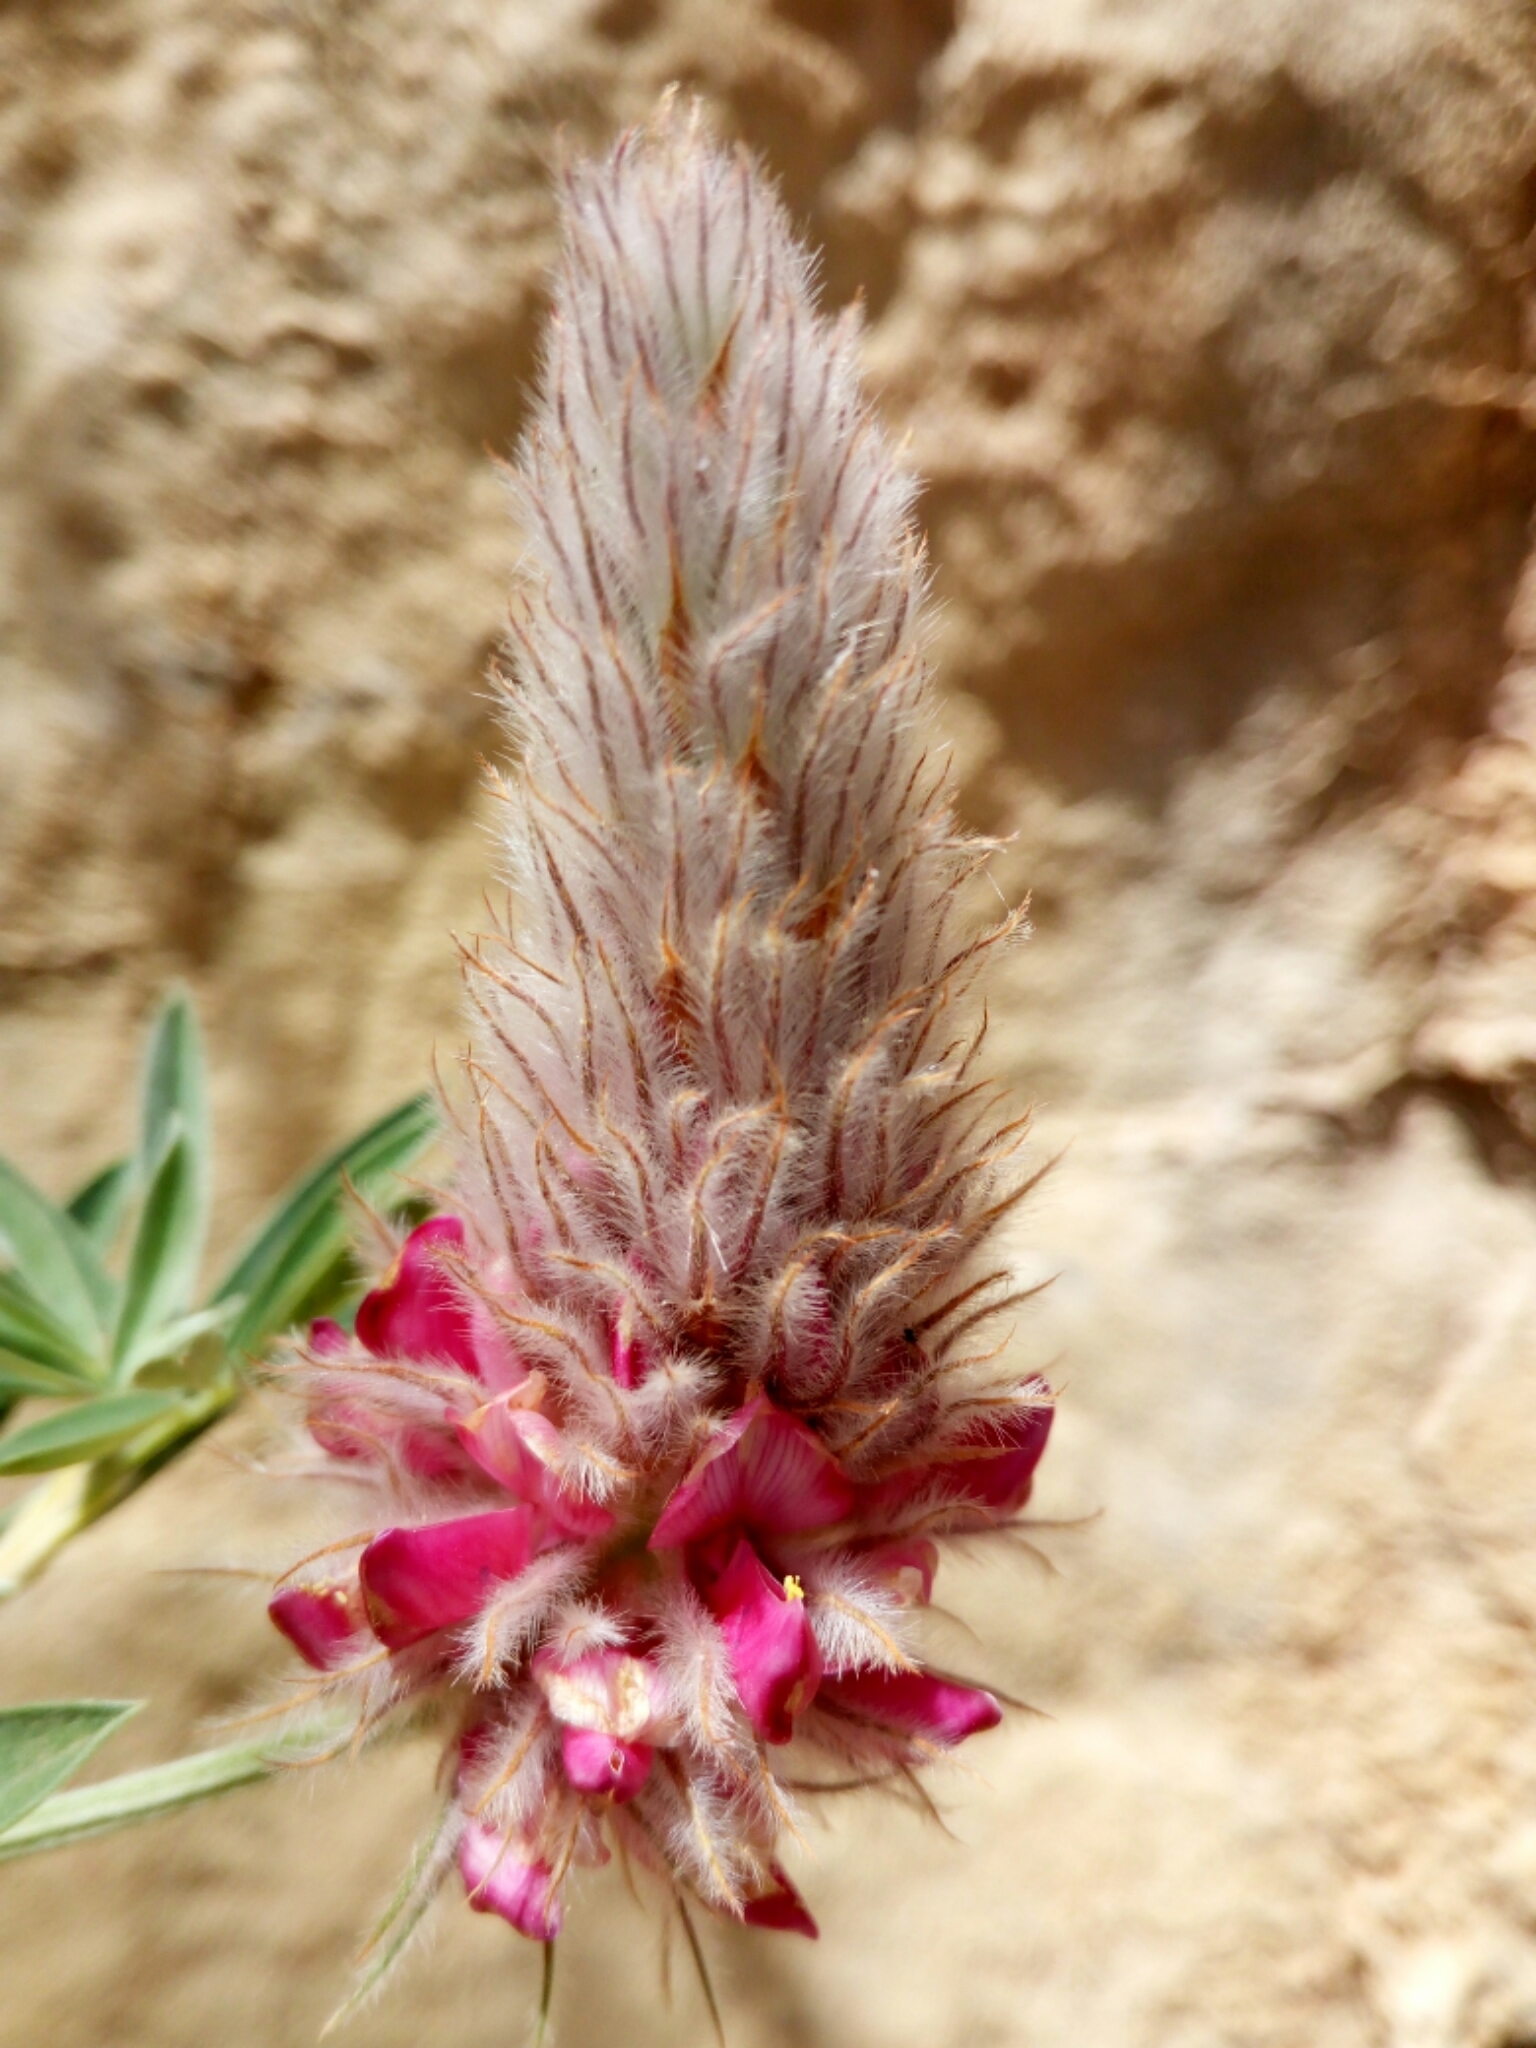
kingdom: Plantae
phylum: Tracheophyta
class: Magnoliopsida
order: Fabales
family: Fabaceae
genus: Ebenus
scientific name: Ebenus cretica
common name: Cretan silver bush
